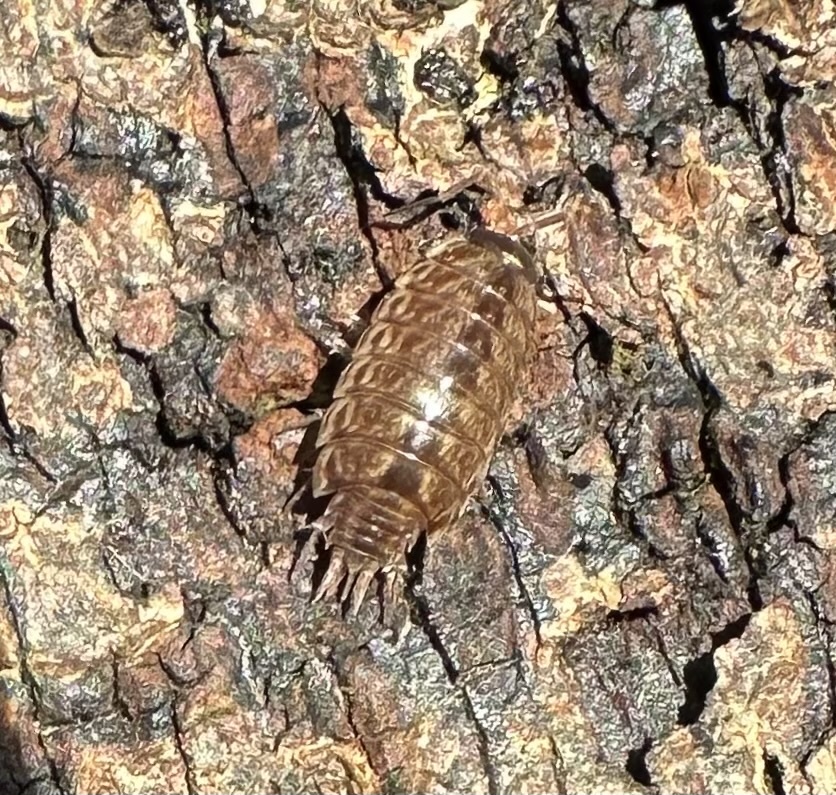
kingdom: Animalia
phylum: Arthropoda
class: Malacostraca
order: Isopoda
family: Philosciidae
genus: Philoscia
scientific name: Philoscia muscorum
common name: Common striped woodlouse
